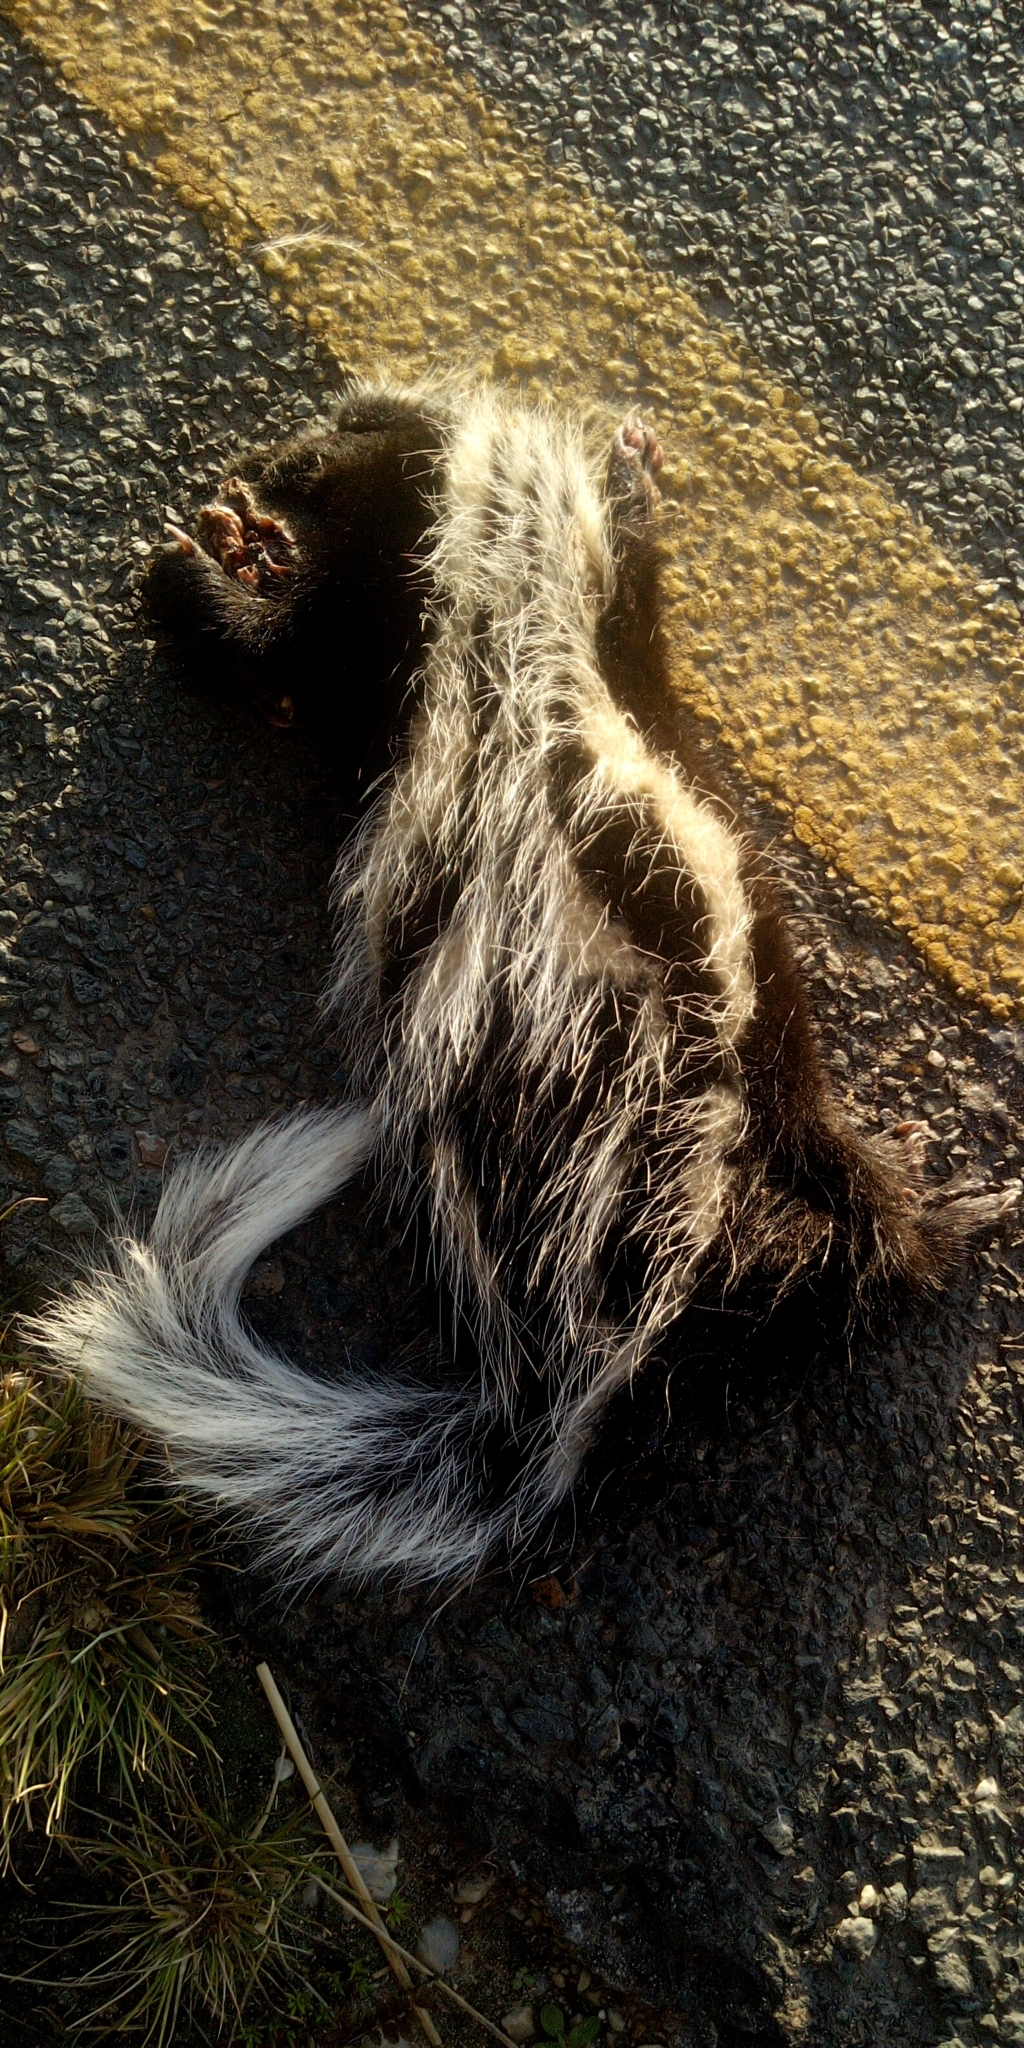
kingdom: Animalia
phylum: Chordata
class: Mammalia
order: Carnivora
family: Mustelidae
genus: Poecilogale
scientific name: Poecilogale albinucha
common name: African striped weasel
